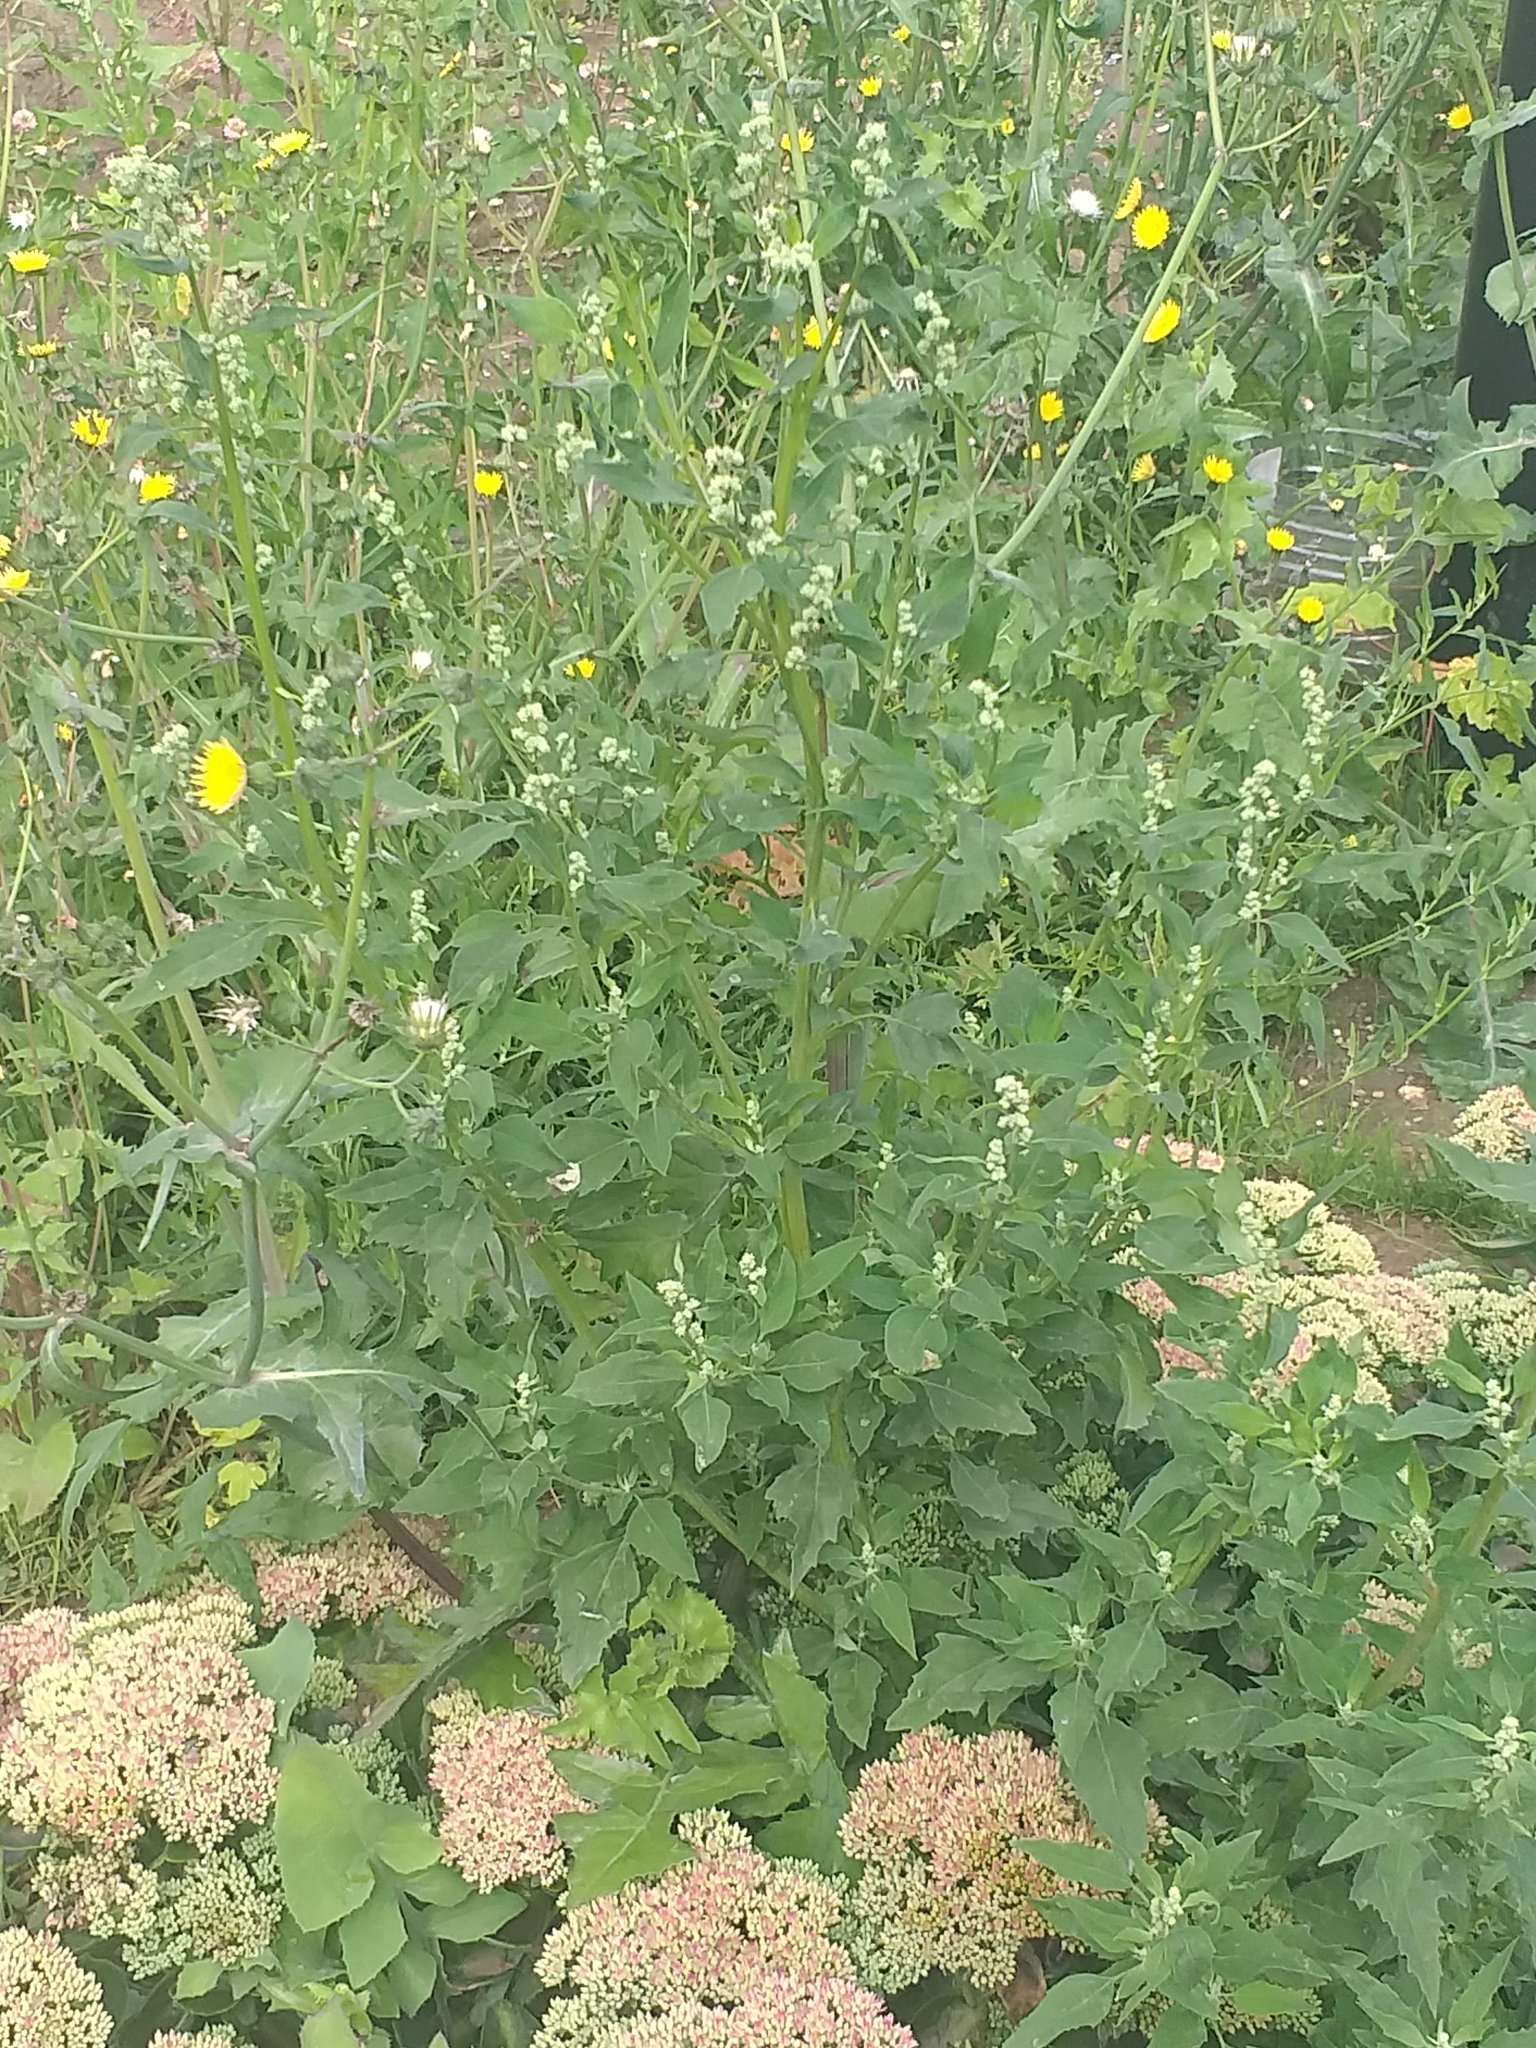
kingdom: Plantae
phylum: Tracheophyta
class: Magnoliopsida
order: Caryophyllales
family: Amaranthaceae
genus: Chenopodium
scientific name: Chenopodium album
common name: Fat-hen
